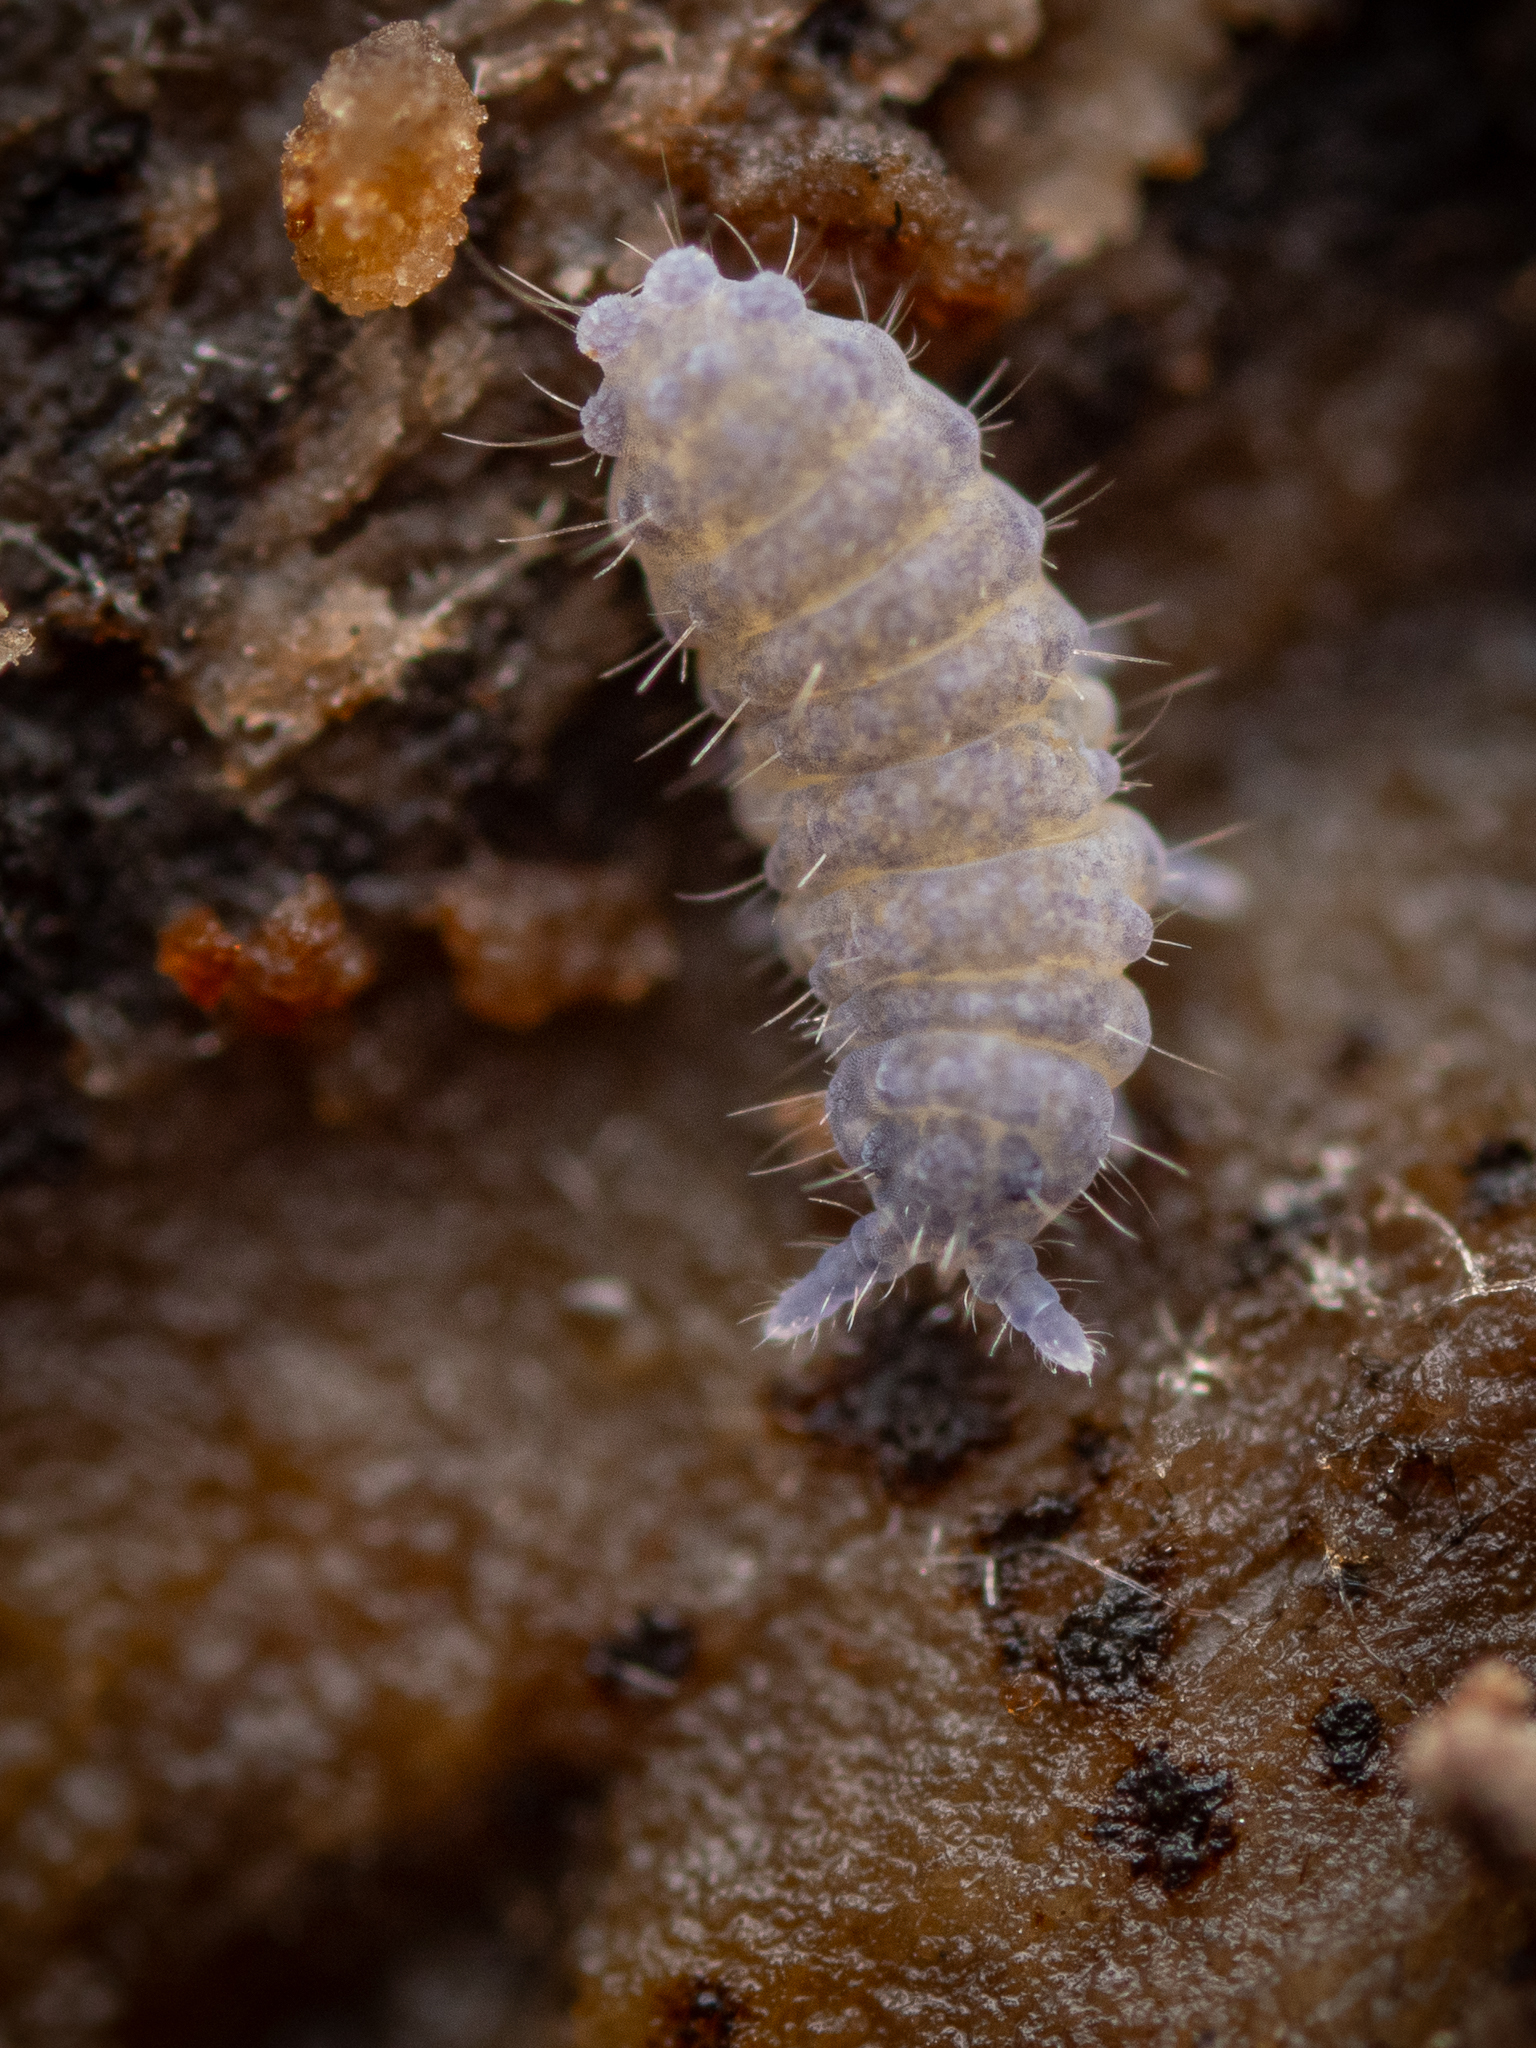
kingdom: Animalia
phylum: Arthropoda
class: Collembola
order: Poduromorpha
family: Neanuridae
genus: Neanura
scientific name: Neanura muscorum
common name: Springtail
